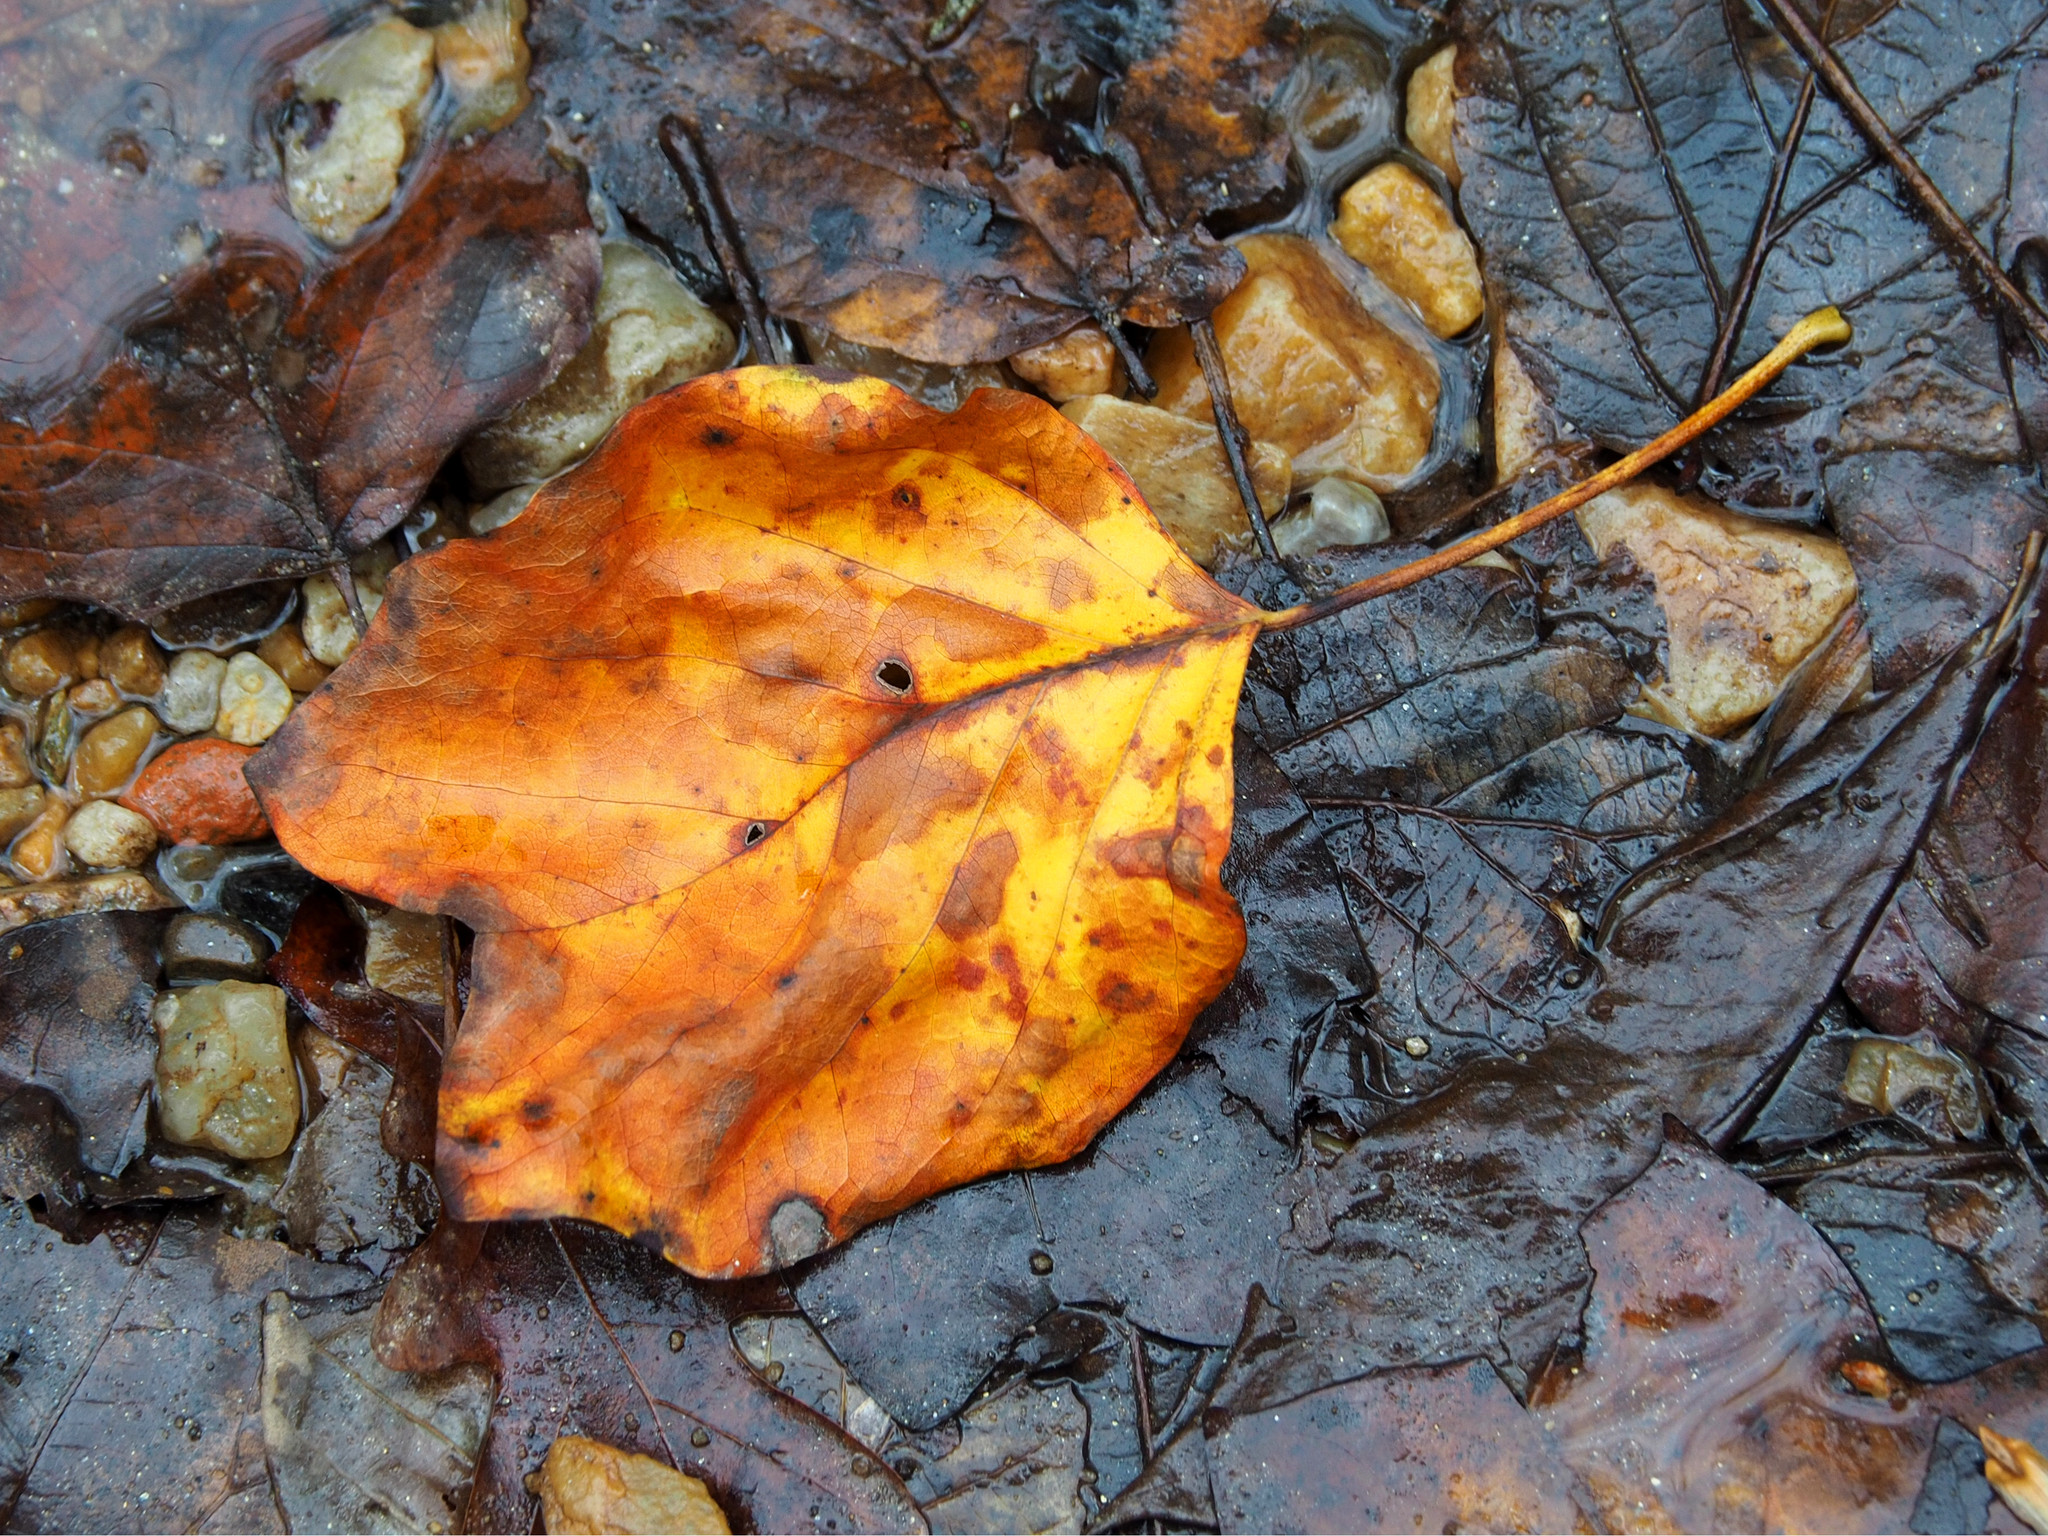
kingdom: Plantae
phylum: Tracheophyta
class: Magnoliopsida
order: Magnoliales
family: Magnoliaceae
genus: Liriodendron
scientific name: Liriodendron tulipifera
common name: Tulip tree
